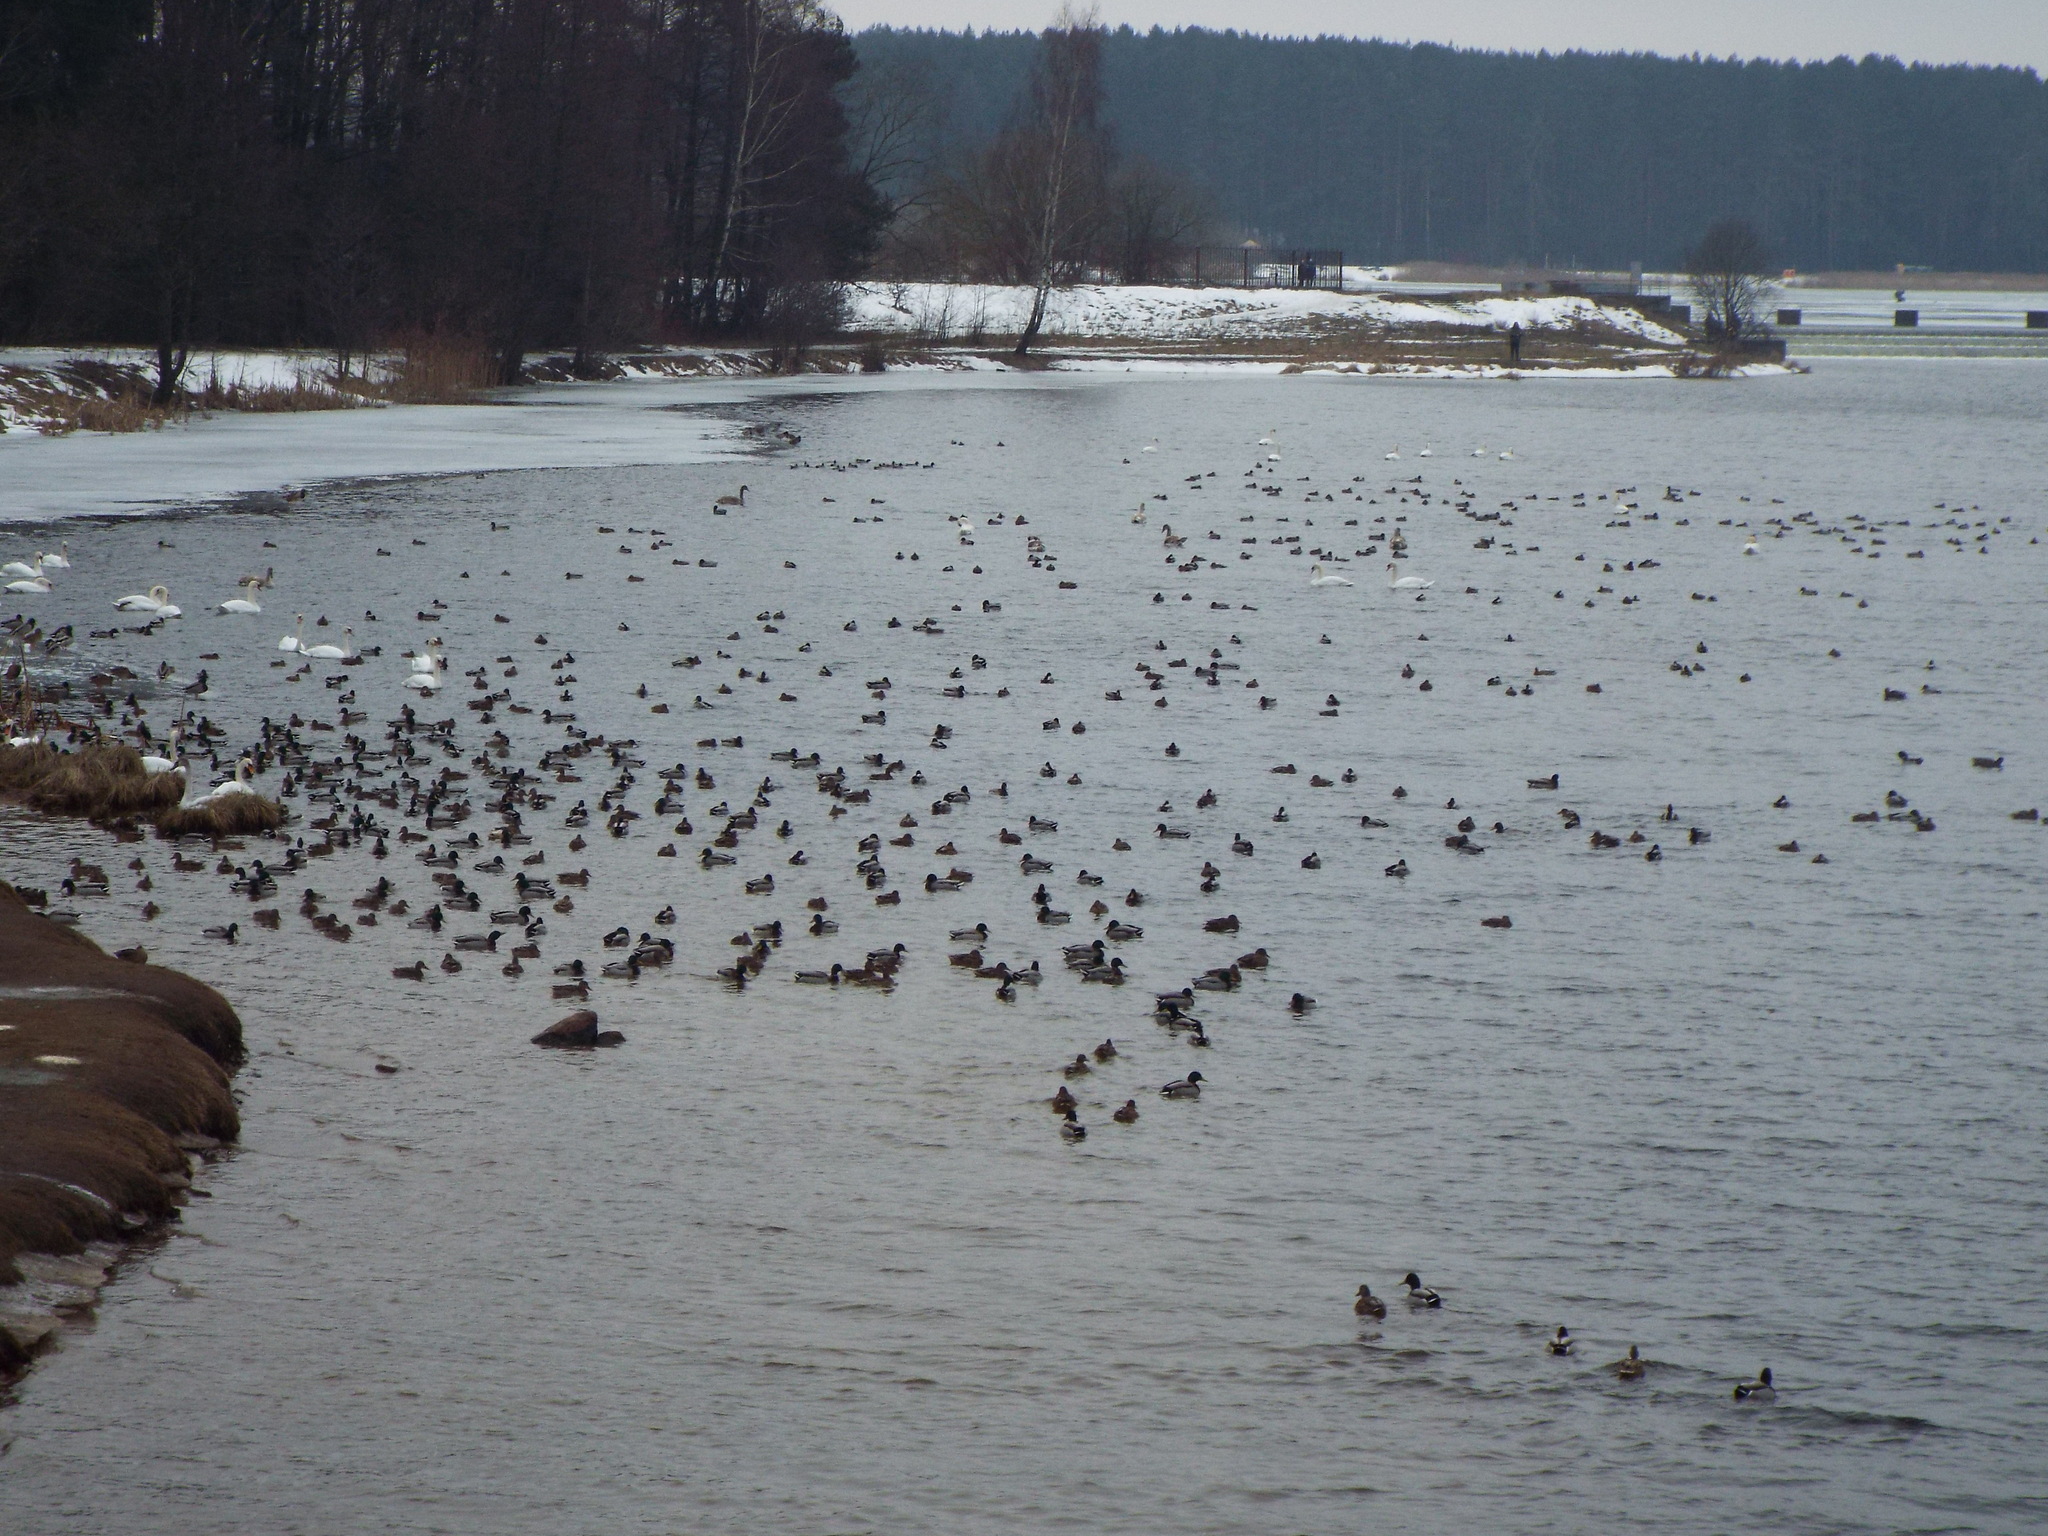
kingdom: Animalia
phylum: Chordata
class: Aves
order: Anseriformes
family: Anatidae
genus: Anas
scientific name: Anas platyrhynchos
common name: Mallard
